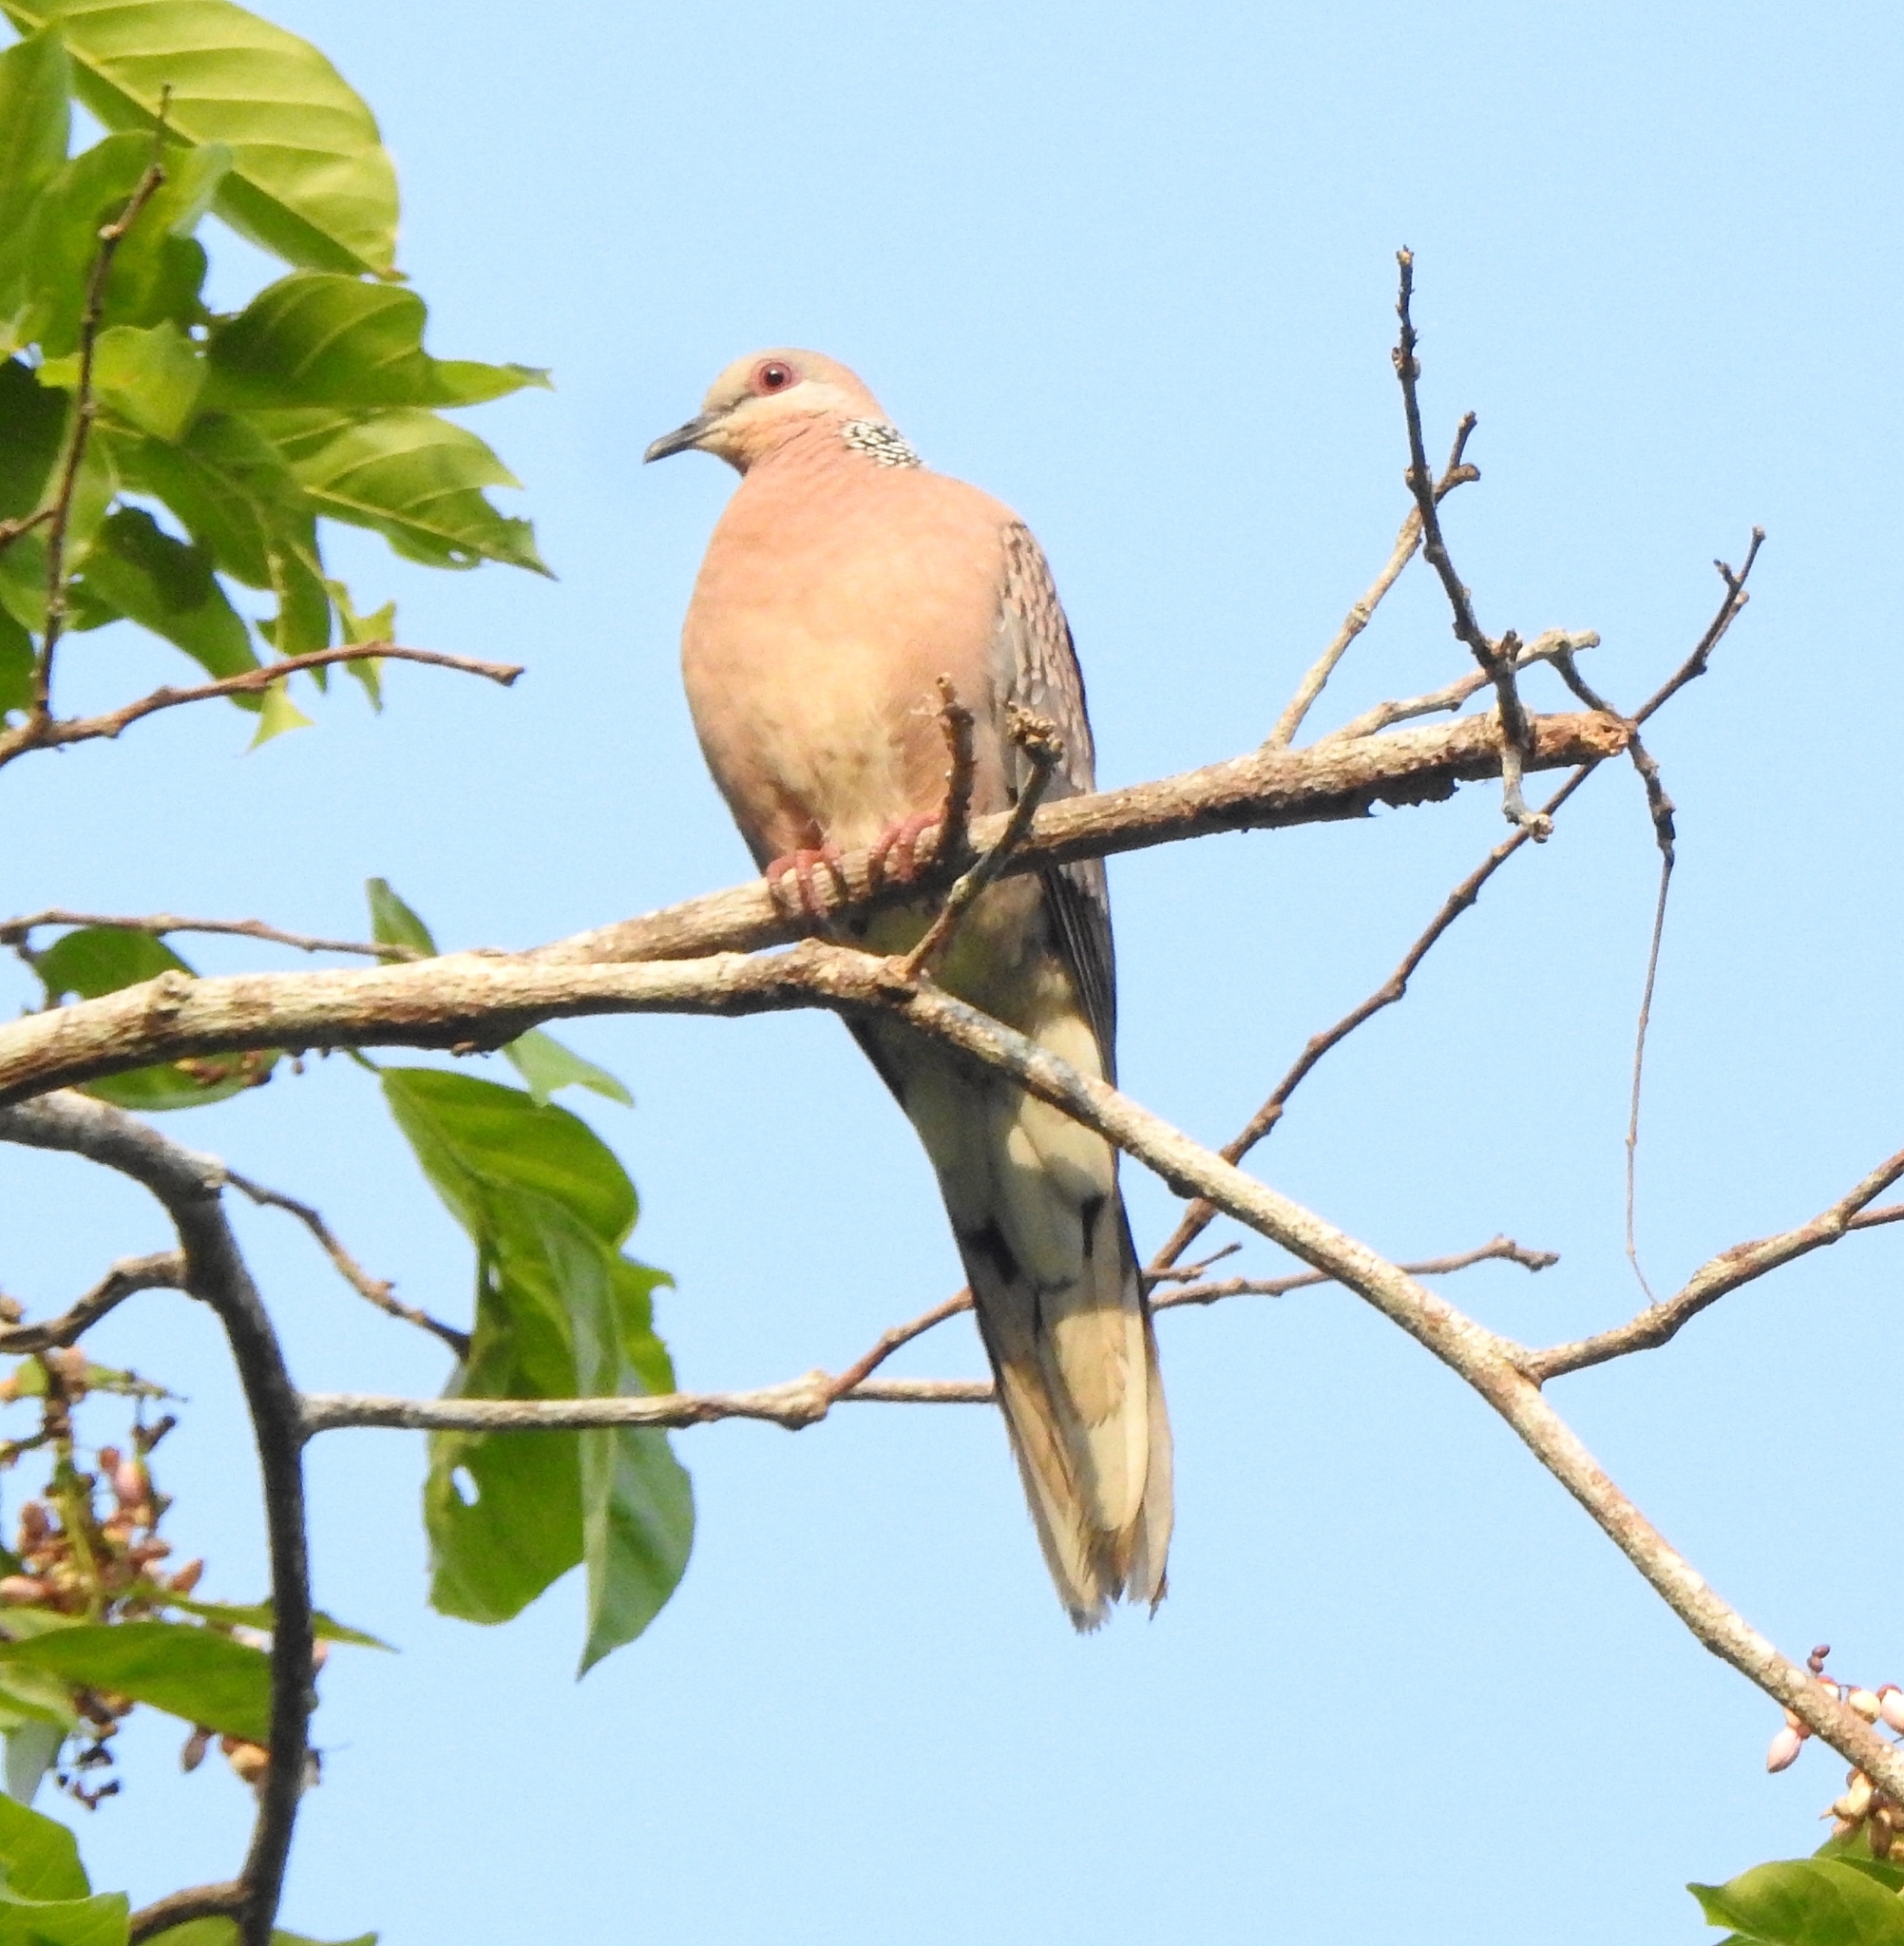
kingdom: Animalia
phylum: Chordata
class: Aves
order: Columbiformes
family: Columbidae
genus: Spilopelia
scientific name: Spilopelia chinensis
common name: Spotted dove
